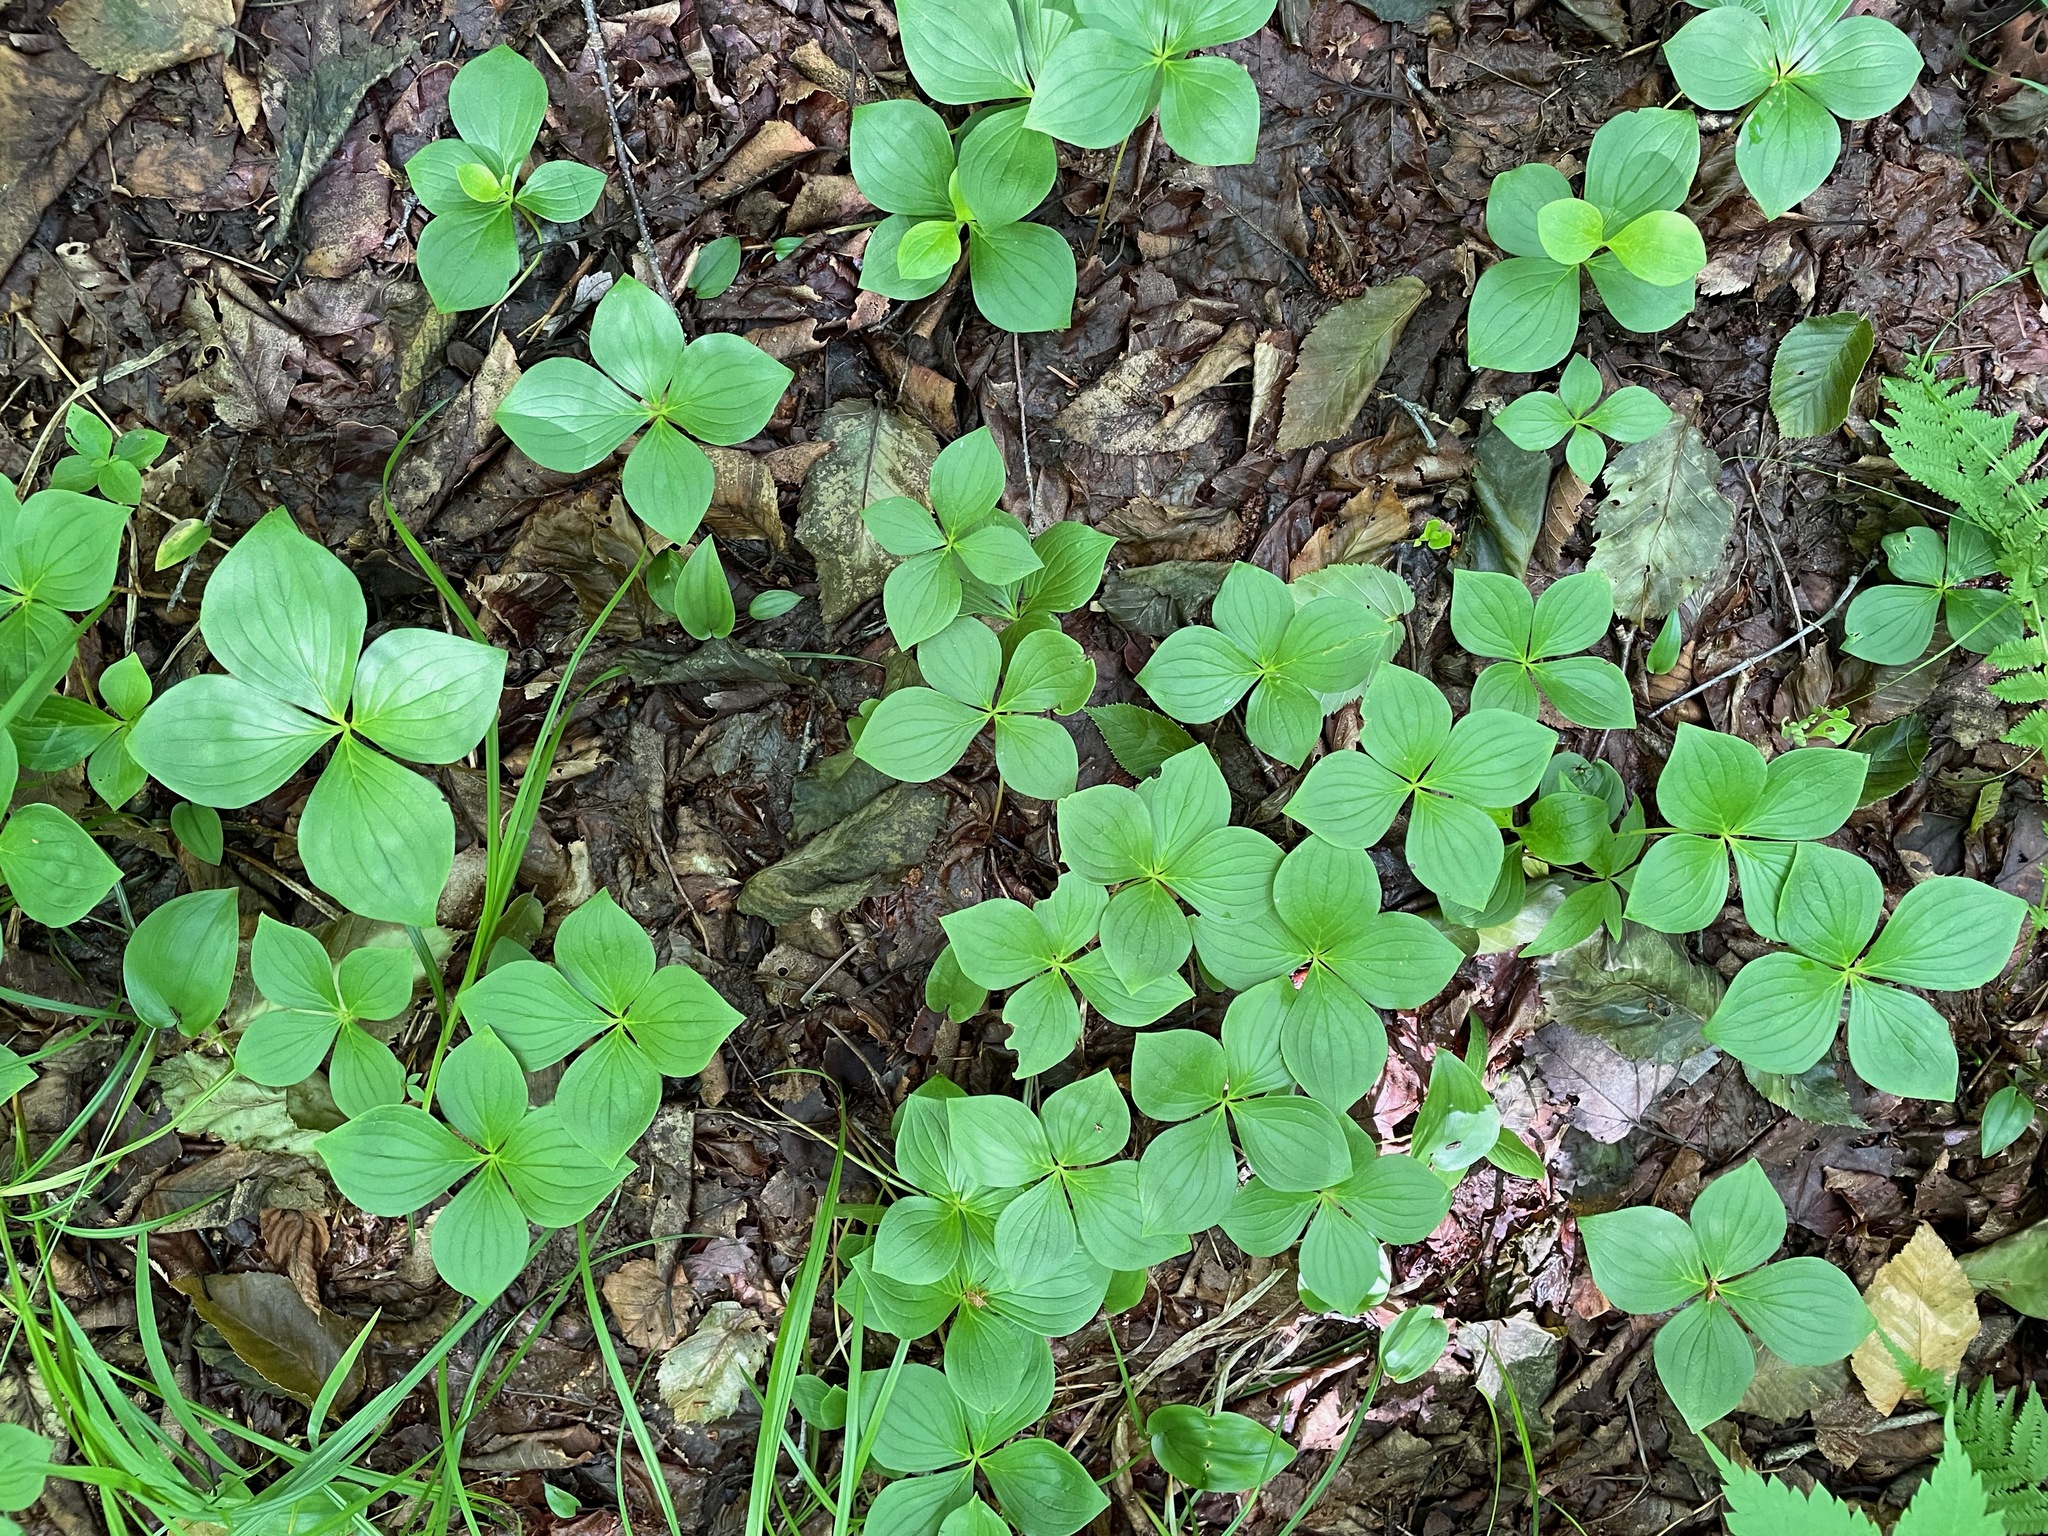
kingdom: Plantae
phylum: Tracheophyta
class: Magnoliopsida
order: Cornales
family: Cornaceae
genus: Cornus
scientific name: Cornus canadensis
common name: Creeping dogwood
